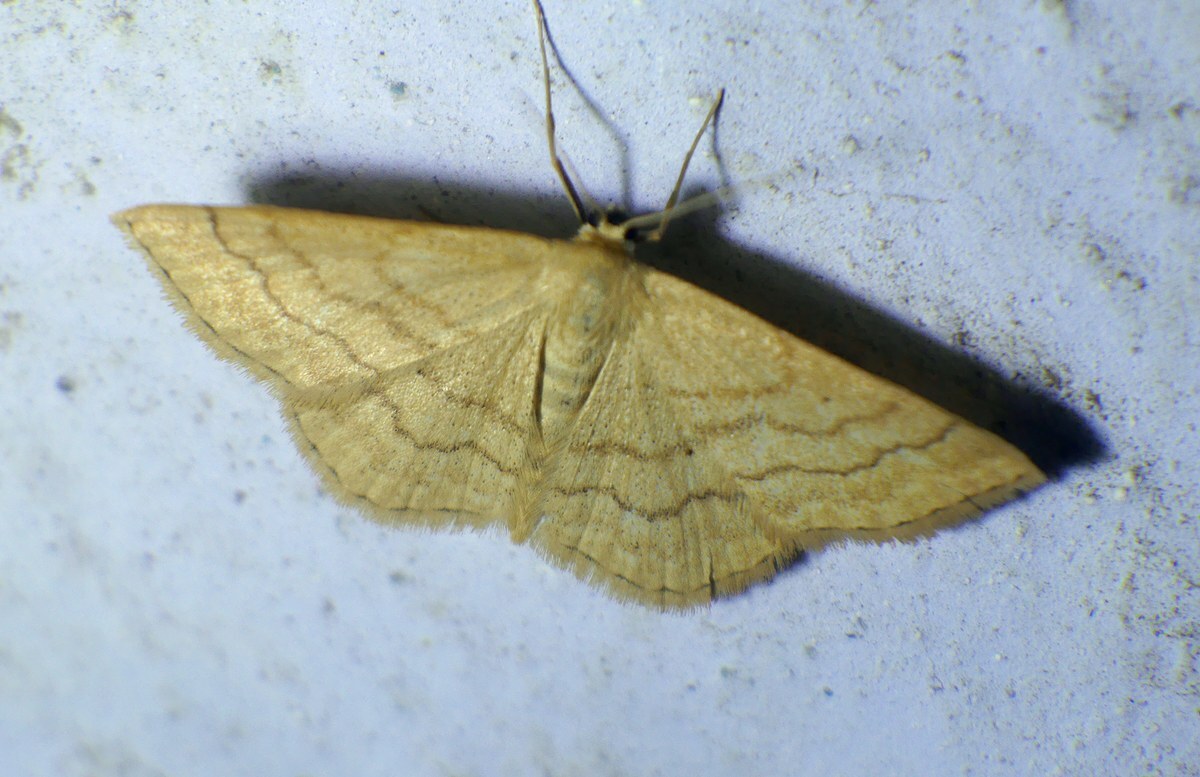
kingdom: Animalia
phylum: Arthropoda
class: Insecta
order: Lepidoptera
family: Geometridae
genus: Idaea
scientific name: Idaea rufaria
